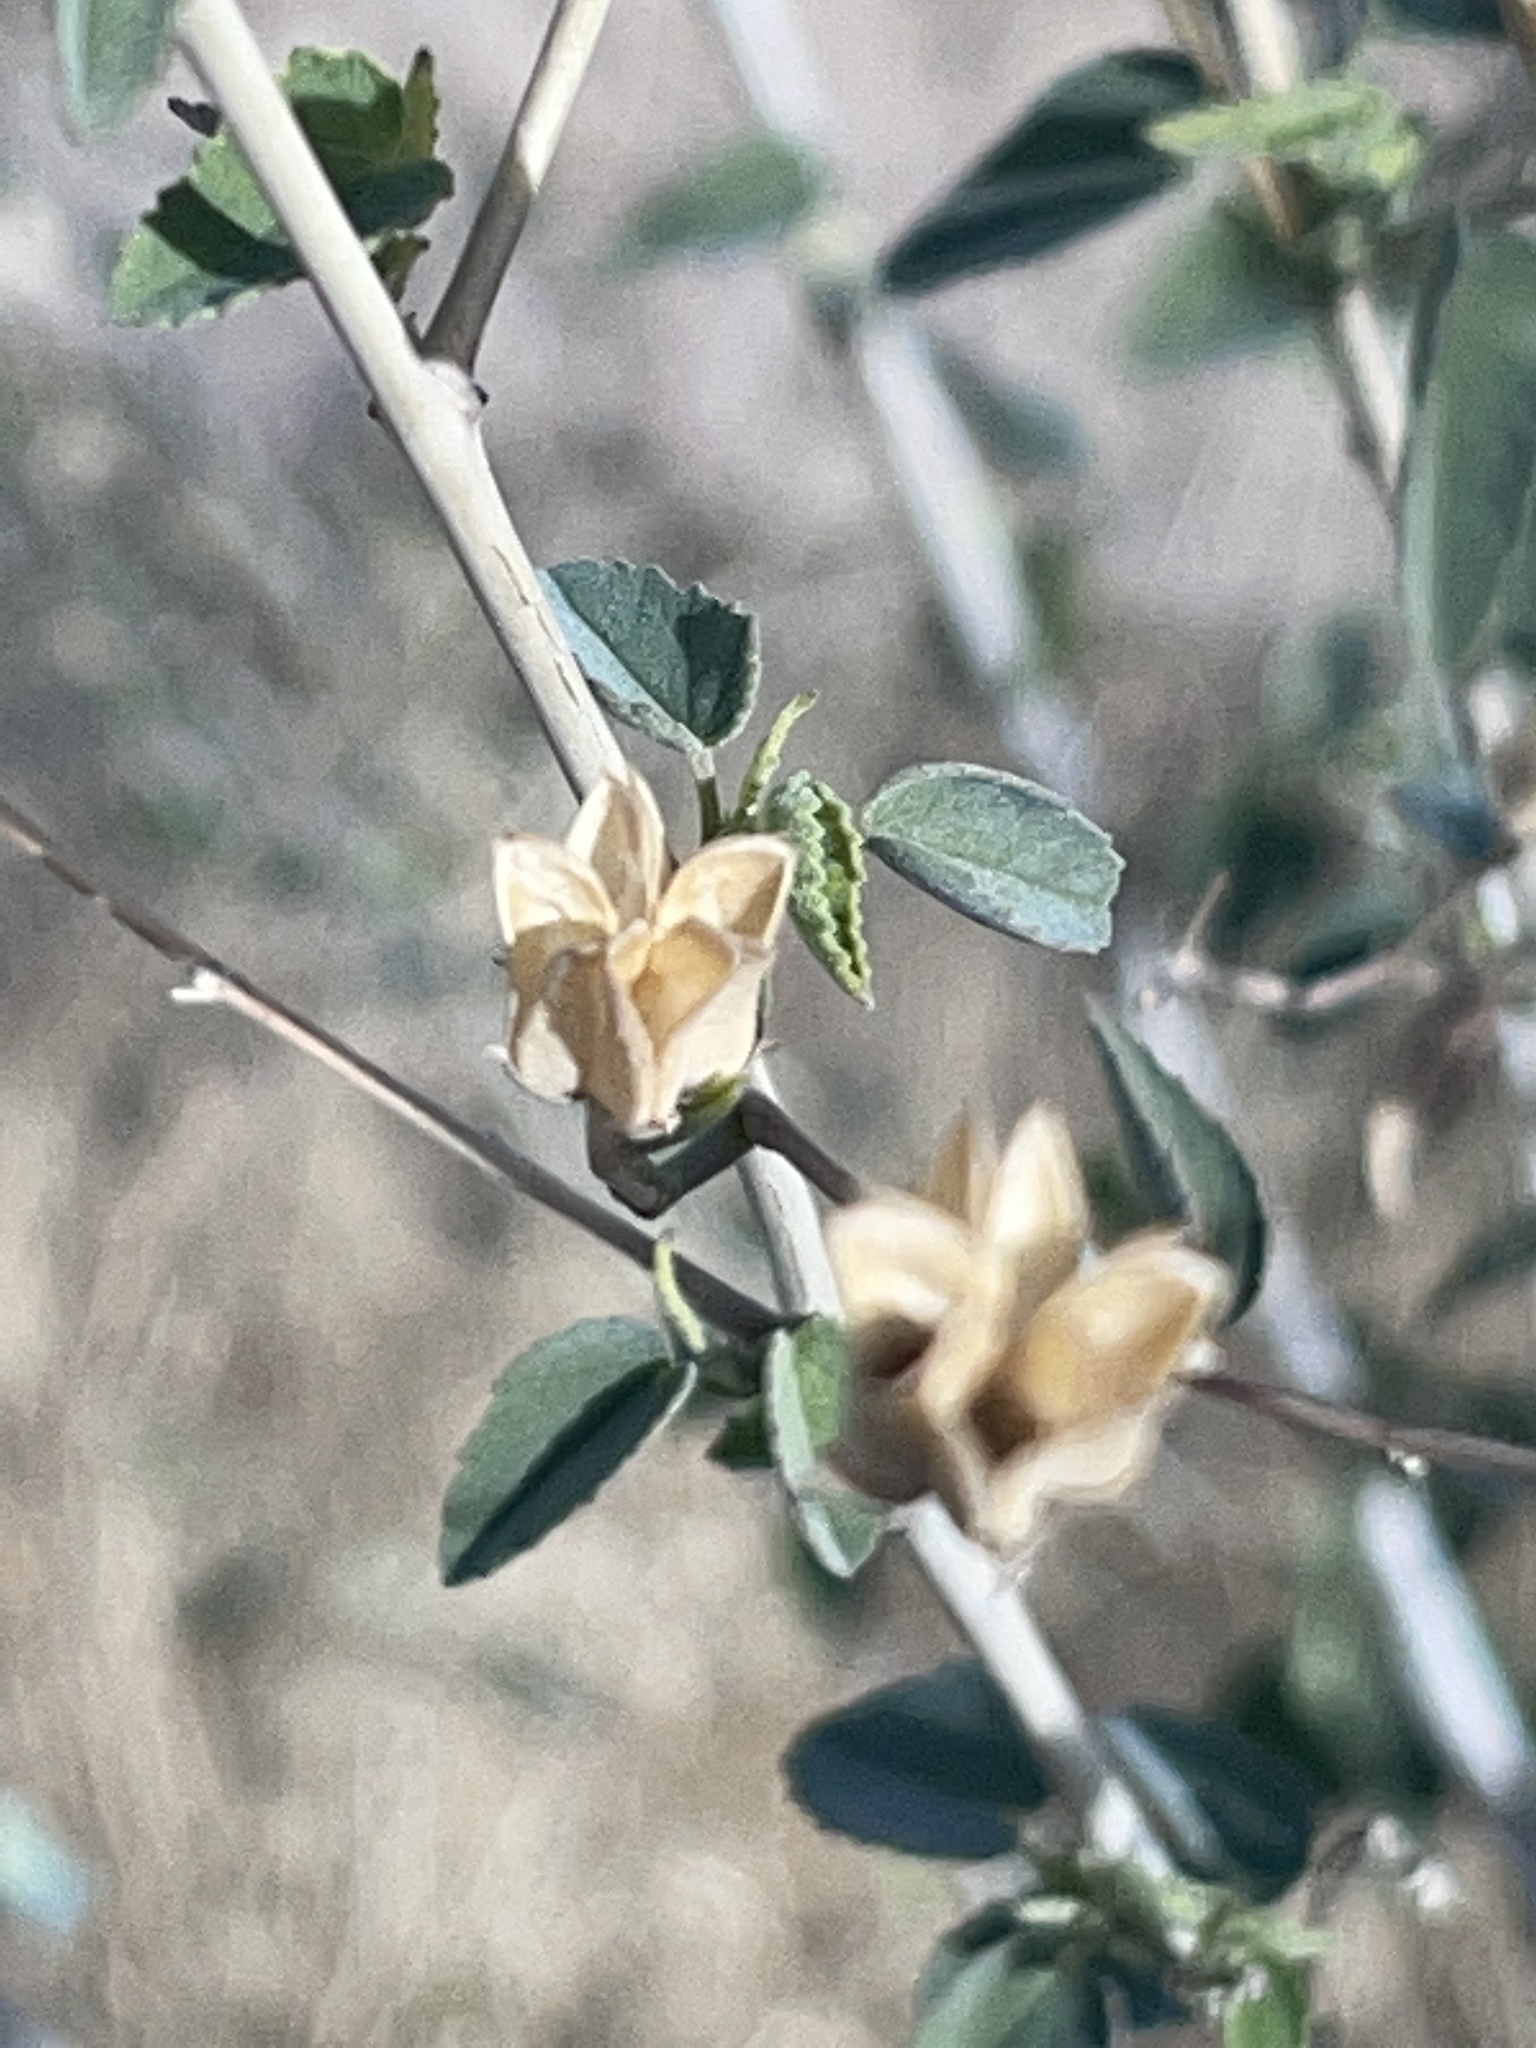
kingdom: Plantae
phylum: Tracheophyta
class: Magnoliopsida
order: Malvales
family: Malvaceae
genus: Abutilon
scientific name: Abutilon incanum
